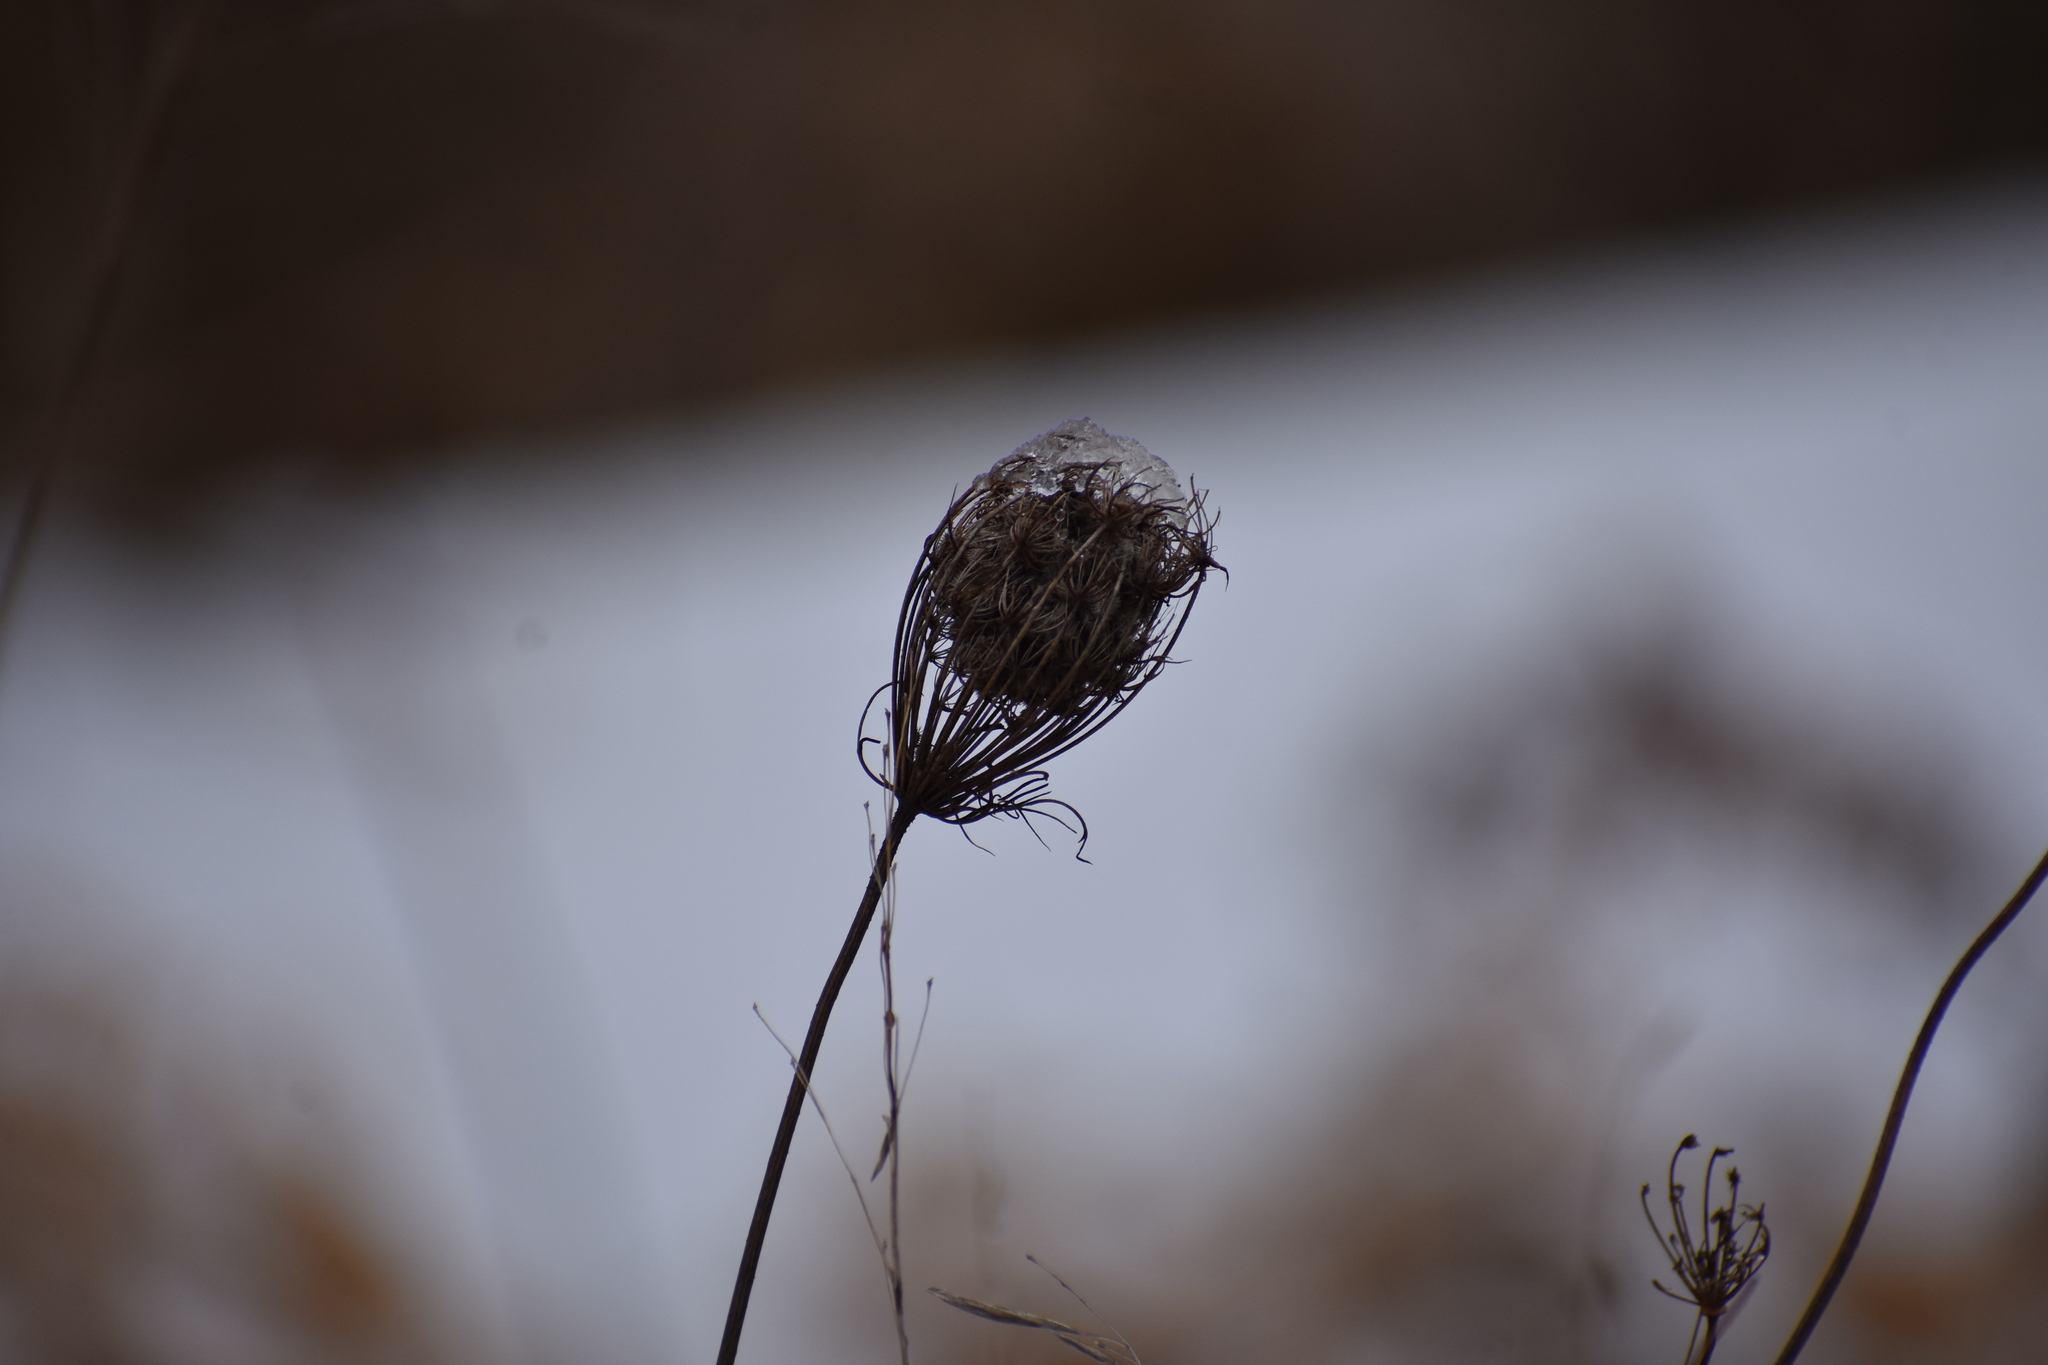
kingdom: Plantae
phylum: Tracheophyta
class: Magnoliopsida
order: Apiales
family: Apiaceae
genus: Daucus
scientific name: Daucus carota
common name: Wild carrot
